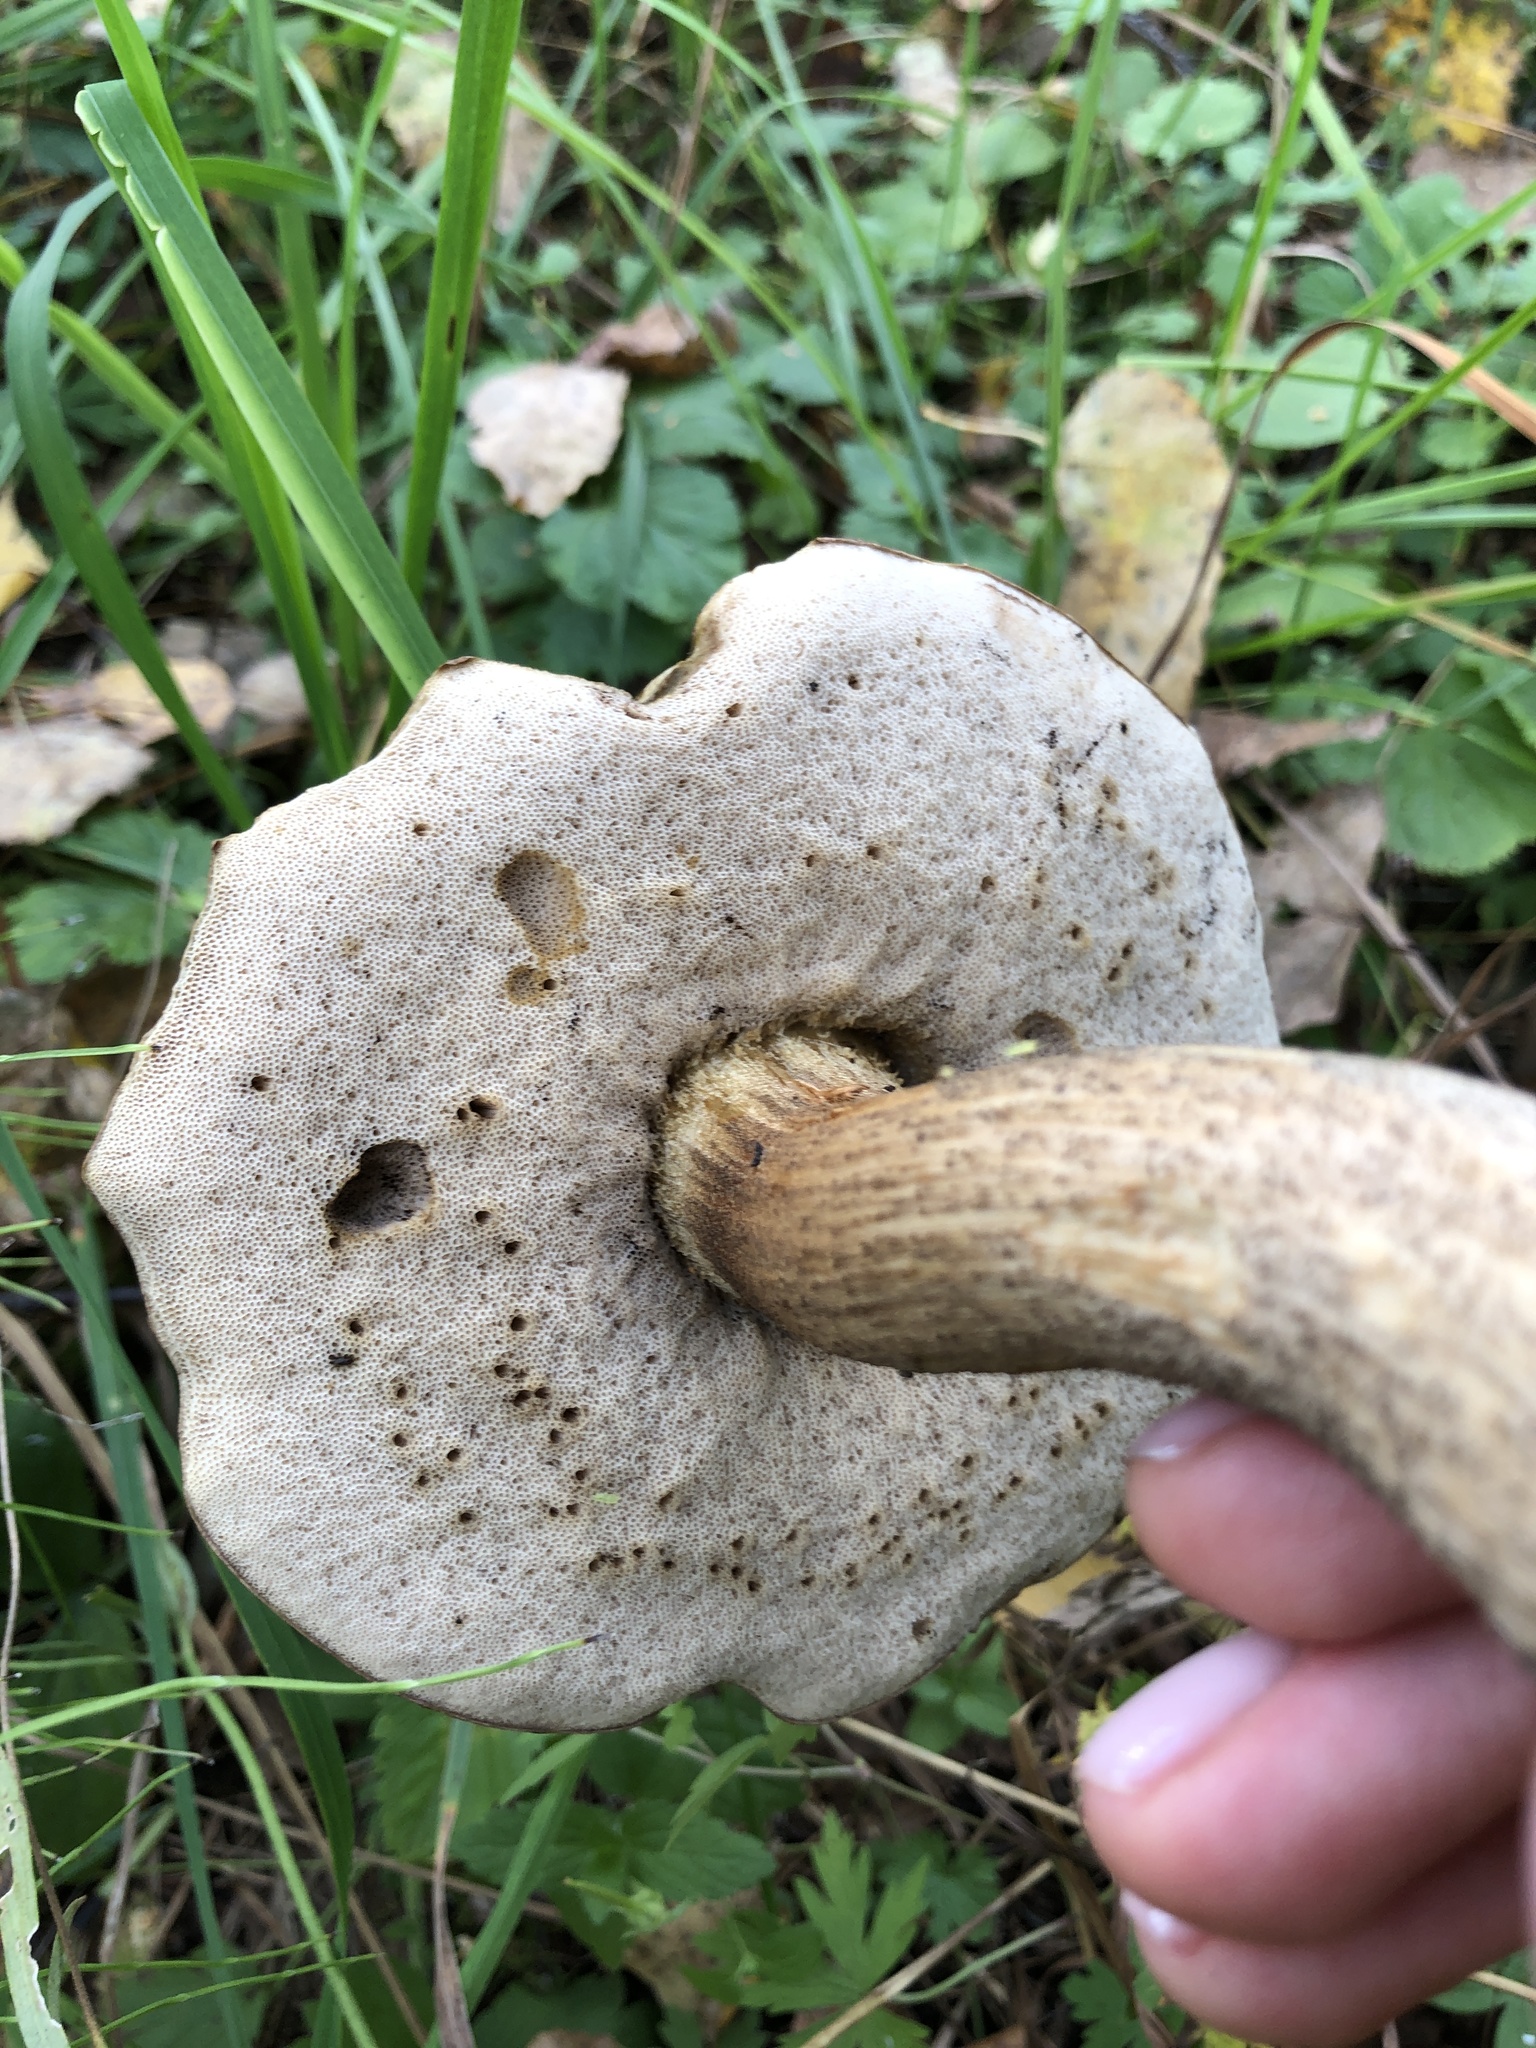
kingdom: Fungi
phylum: Basidiomycota
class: Agaricomycetes
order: Boletales
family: Boletaceae
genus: Leccinum
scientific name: Leccinum scabrum
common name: Blushing bolete
